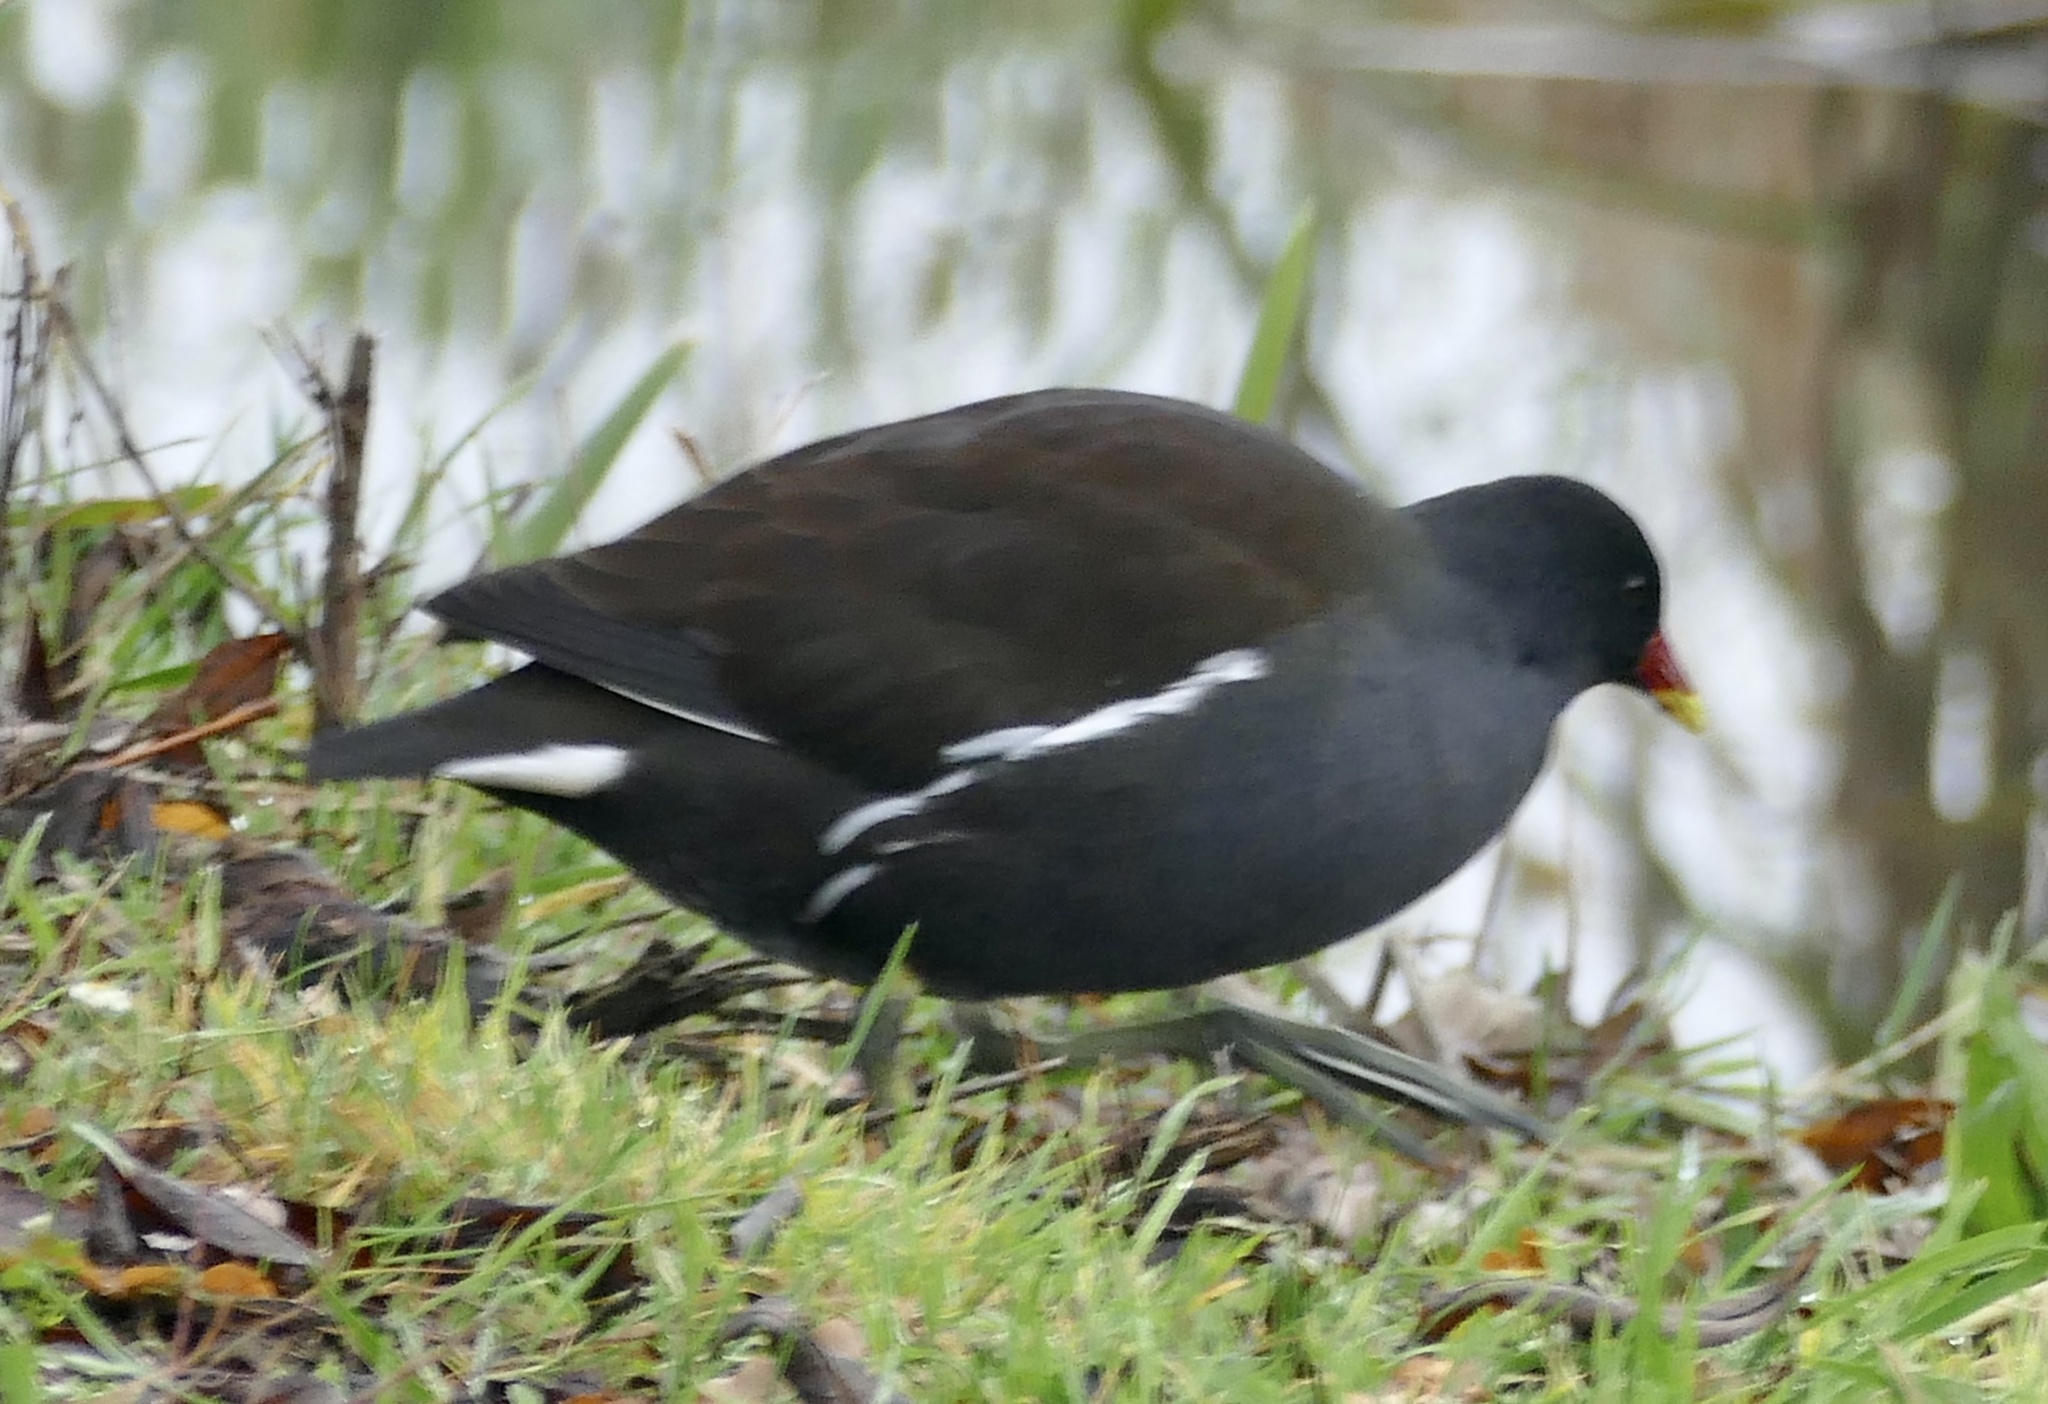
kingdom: Animalia
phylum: Chordata
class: Aves
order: Gruiformes
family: Rallidae
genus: Gallinula
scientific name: Gallinula chloropus
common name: Common moorhen
